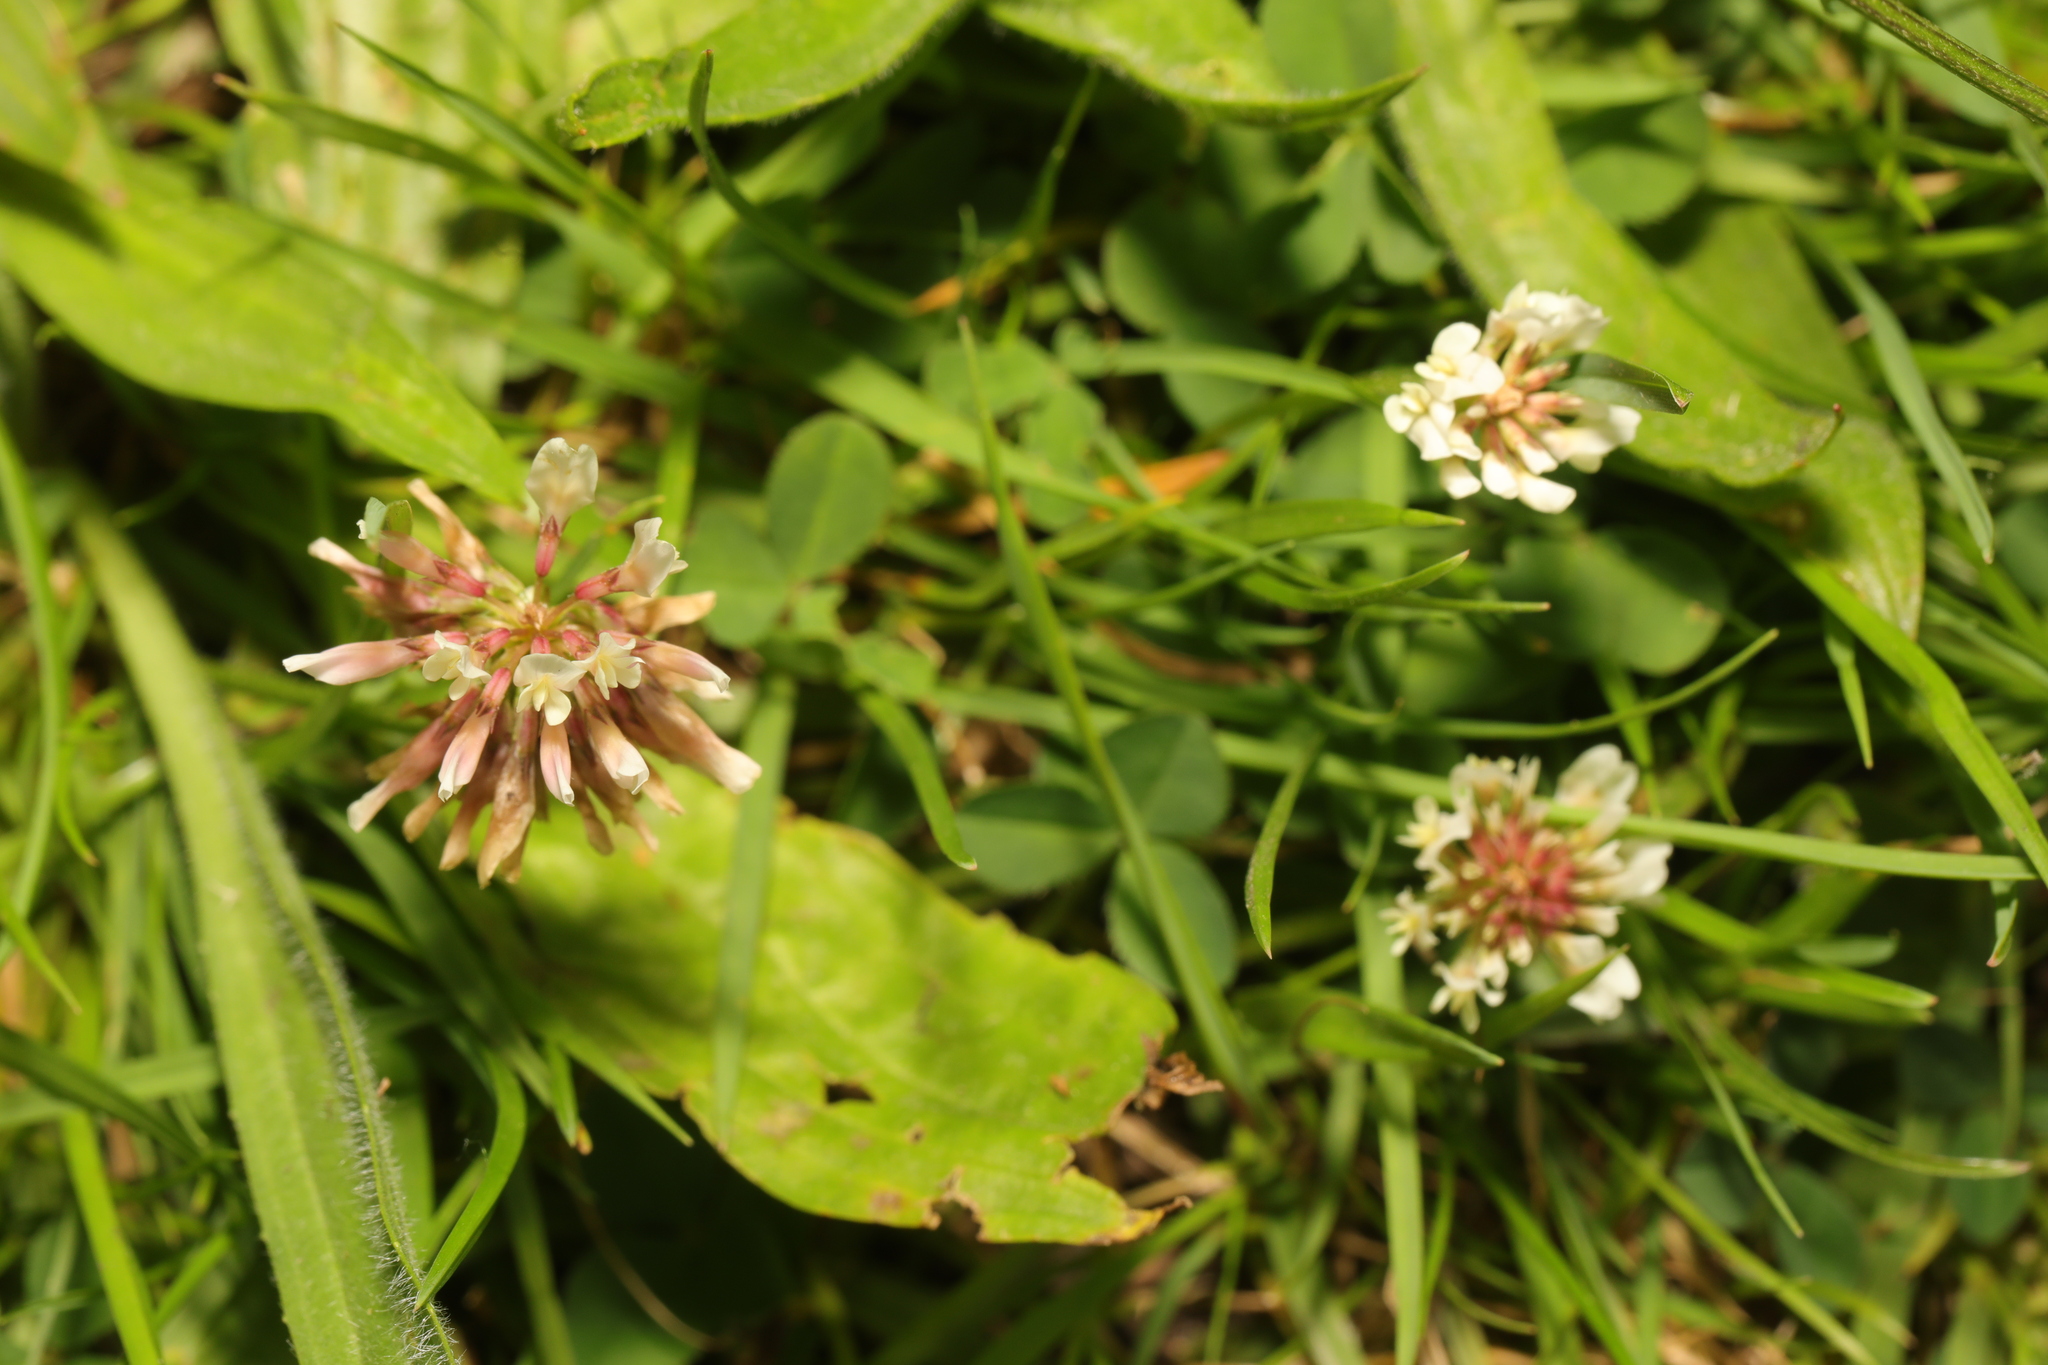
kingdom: Plantae
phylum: Tracheophyta
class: Magnoliopsida
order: Fabales
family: Fabaceae
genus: Trifolium
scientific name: Trifolium repens
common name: White clover
